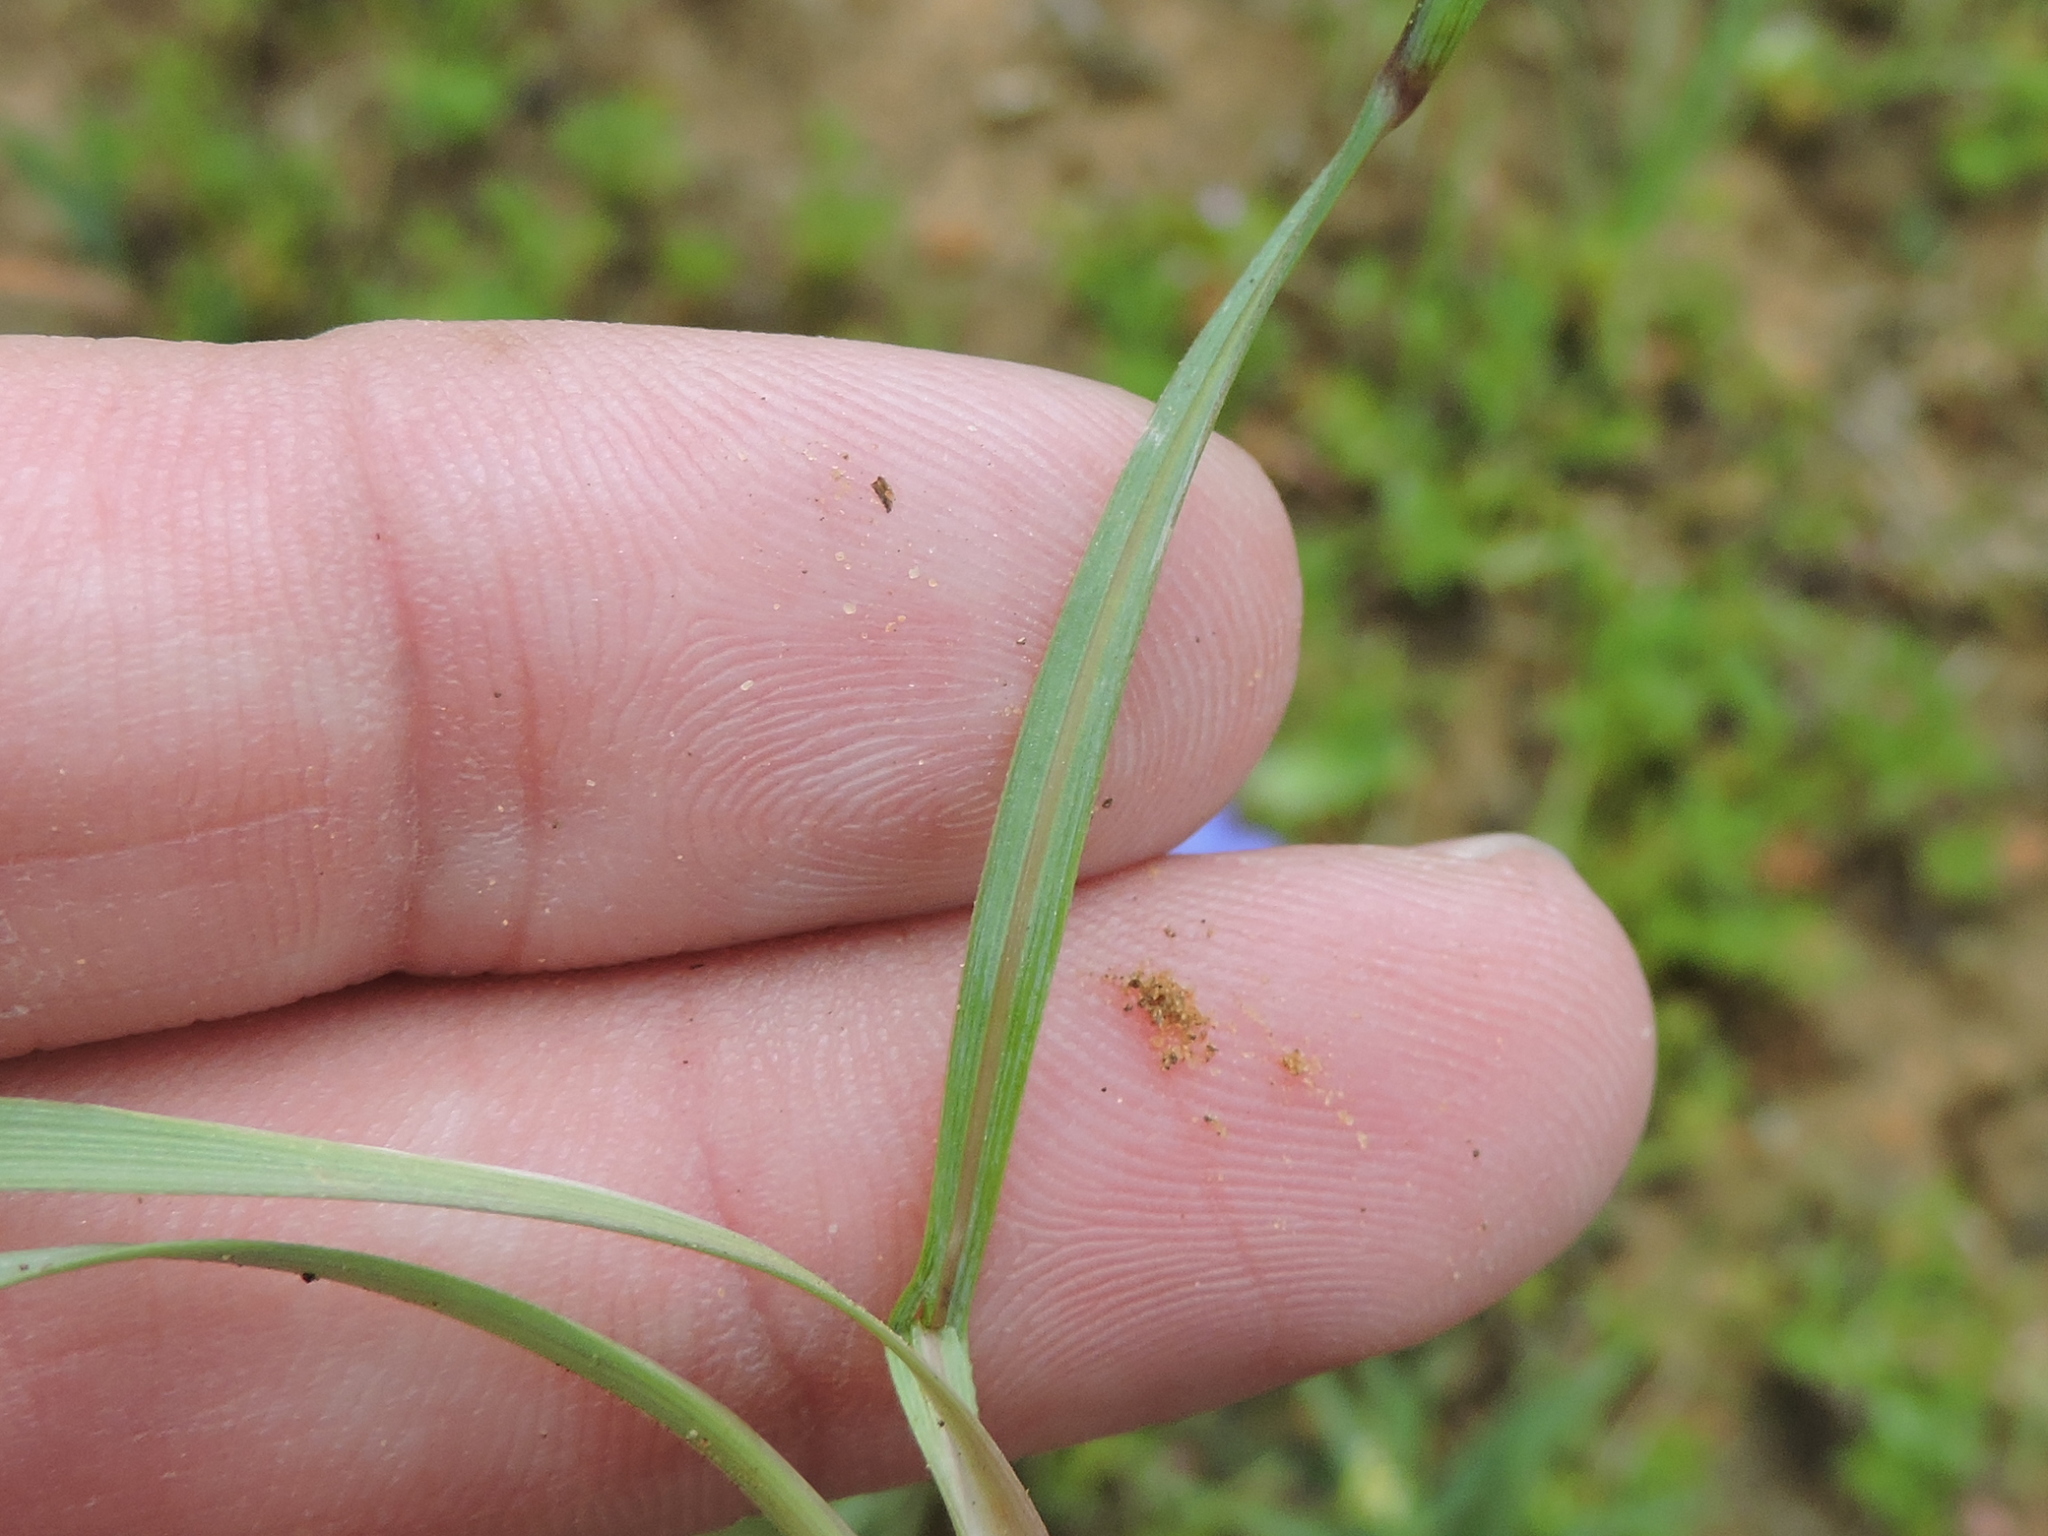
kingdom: Plantae
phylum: Tracheophyta
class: Liliopsida
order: Asparagales
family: Iridaceae
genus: Sisyrinchium
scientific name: Sisyrinchium pruinosum
